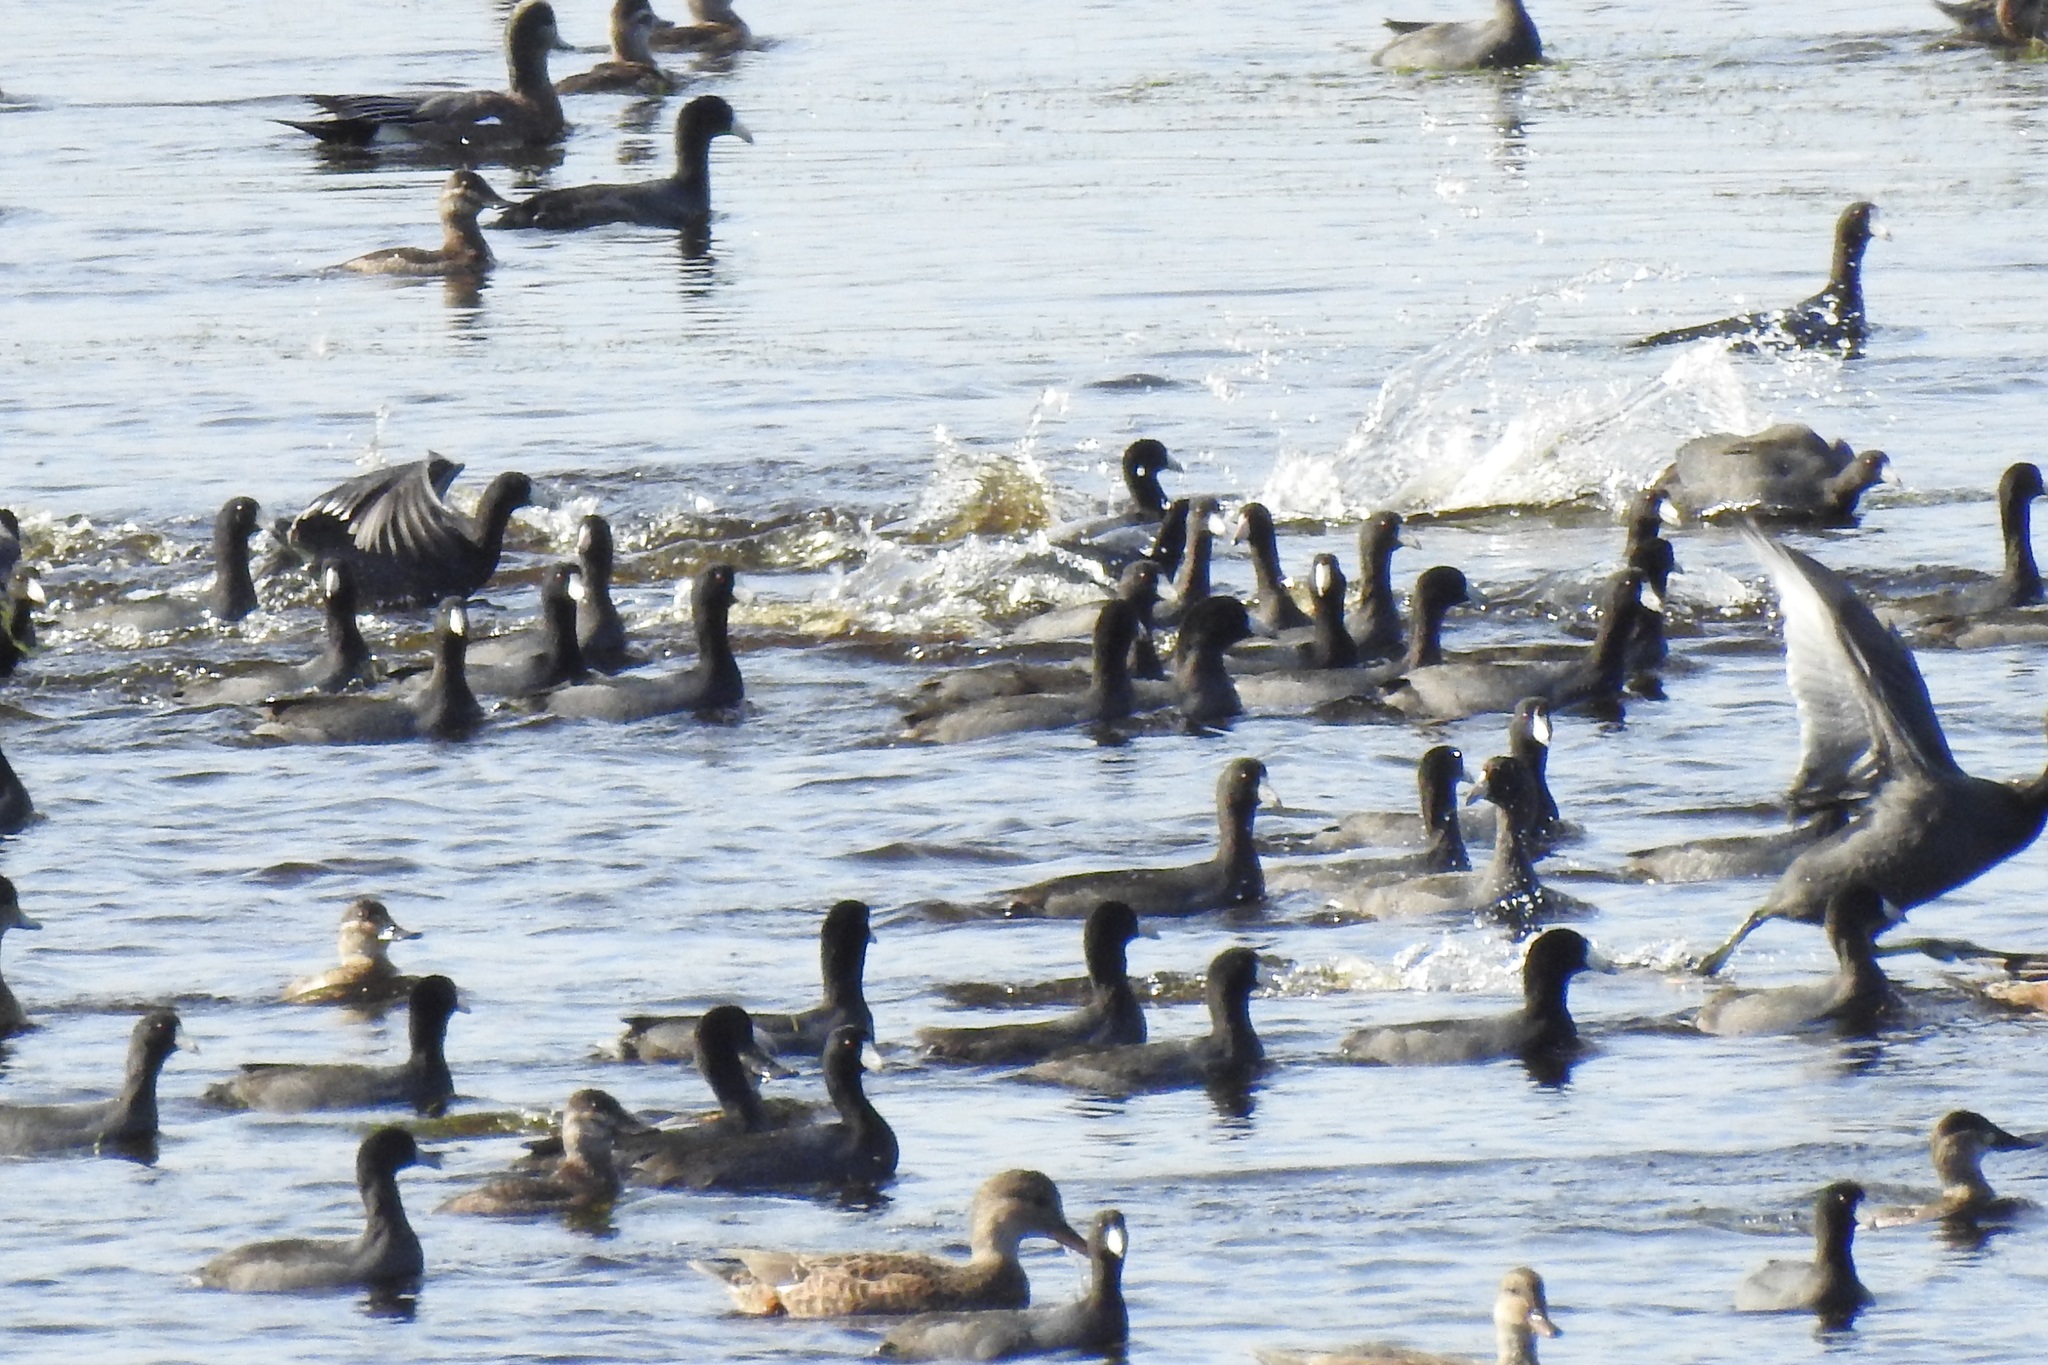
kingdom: Animalia
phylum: Chordata
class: Aves
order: Gruiformes
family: Rallidae
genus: Fulica
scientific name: Fulica americana
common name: American coot
